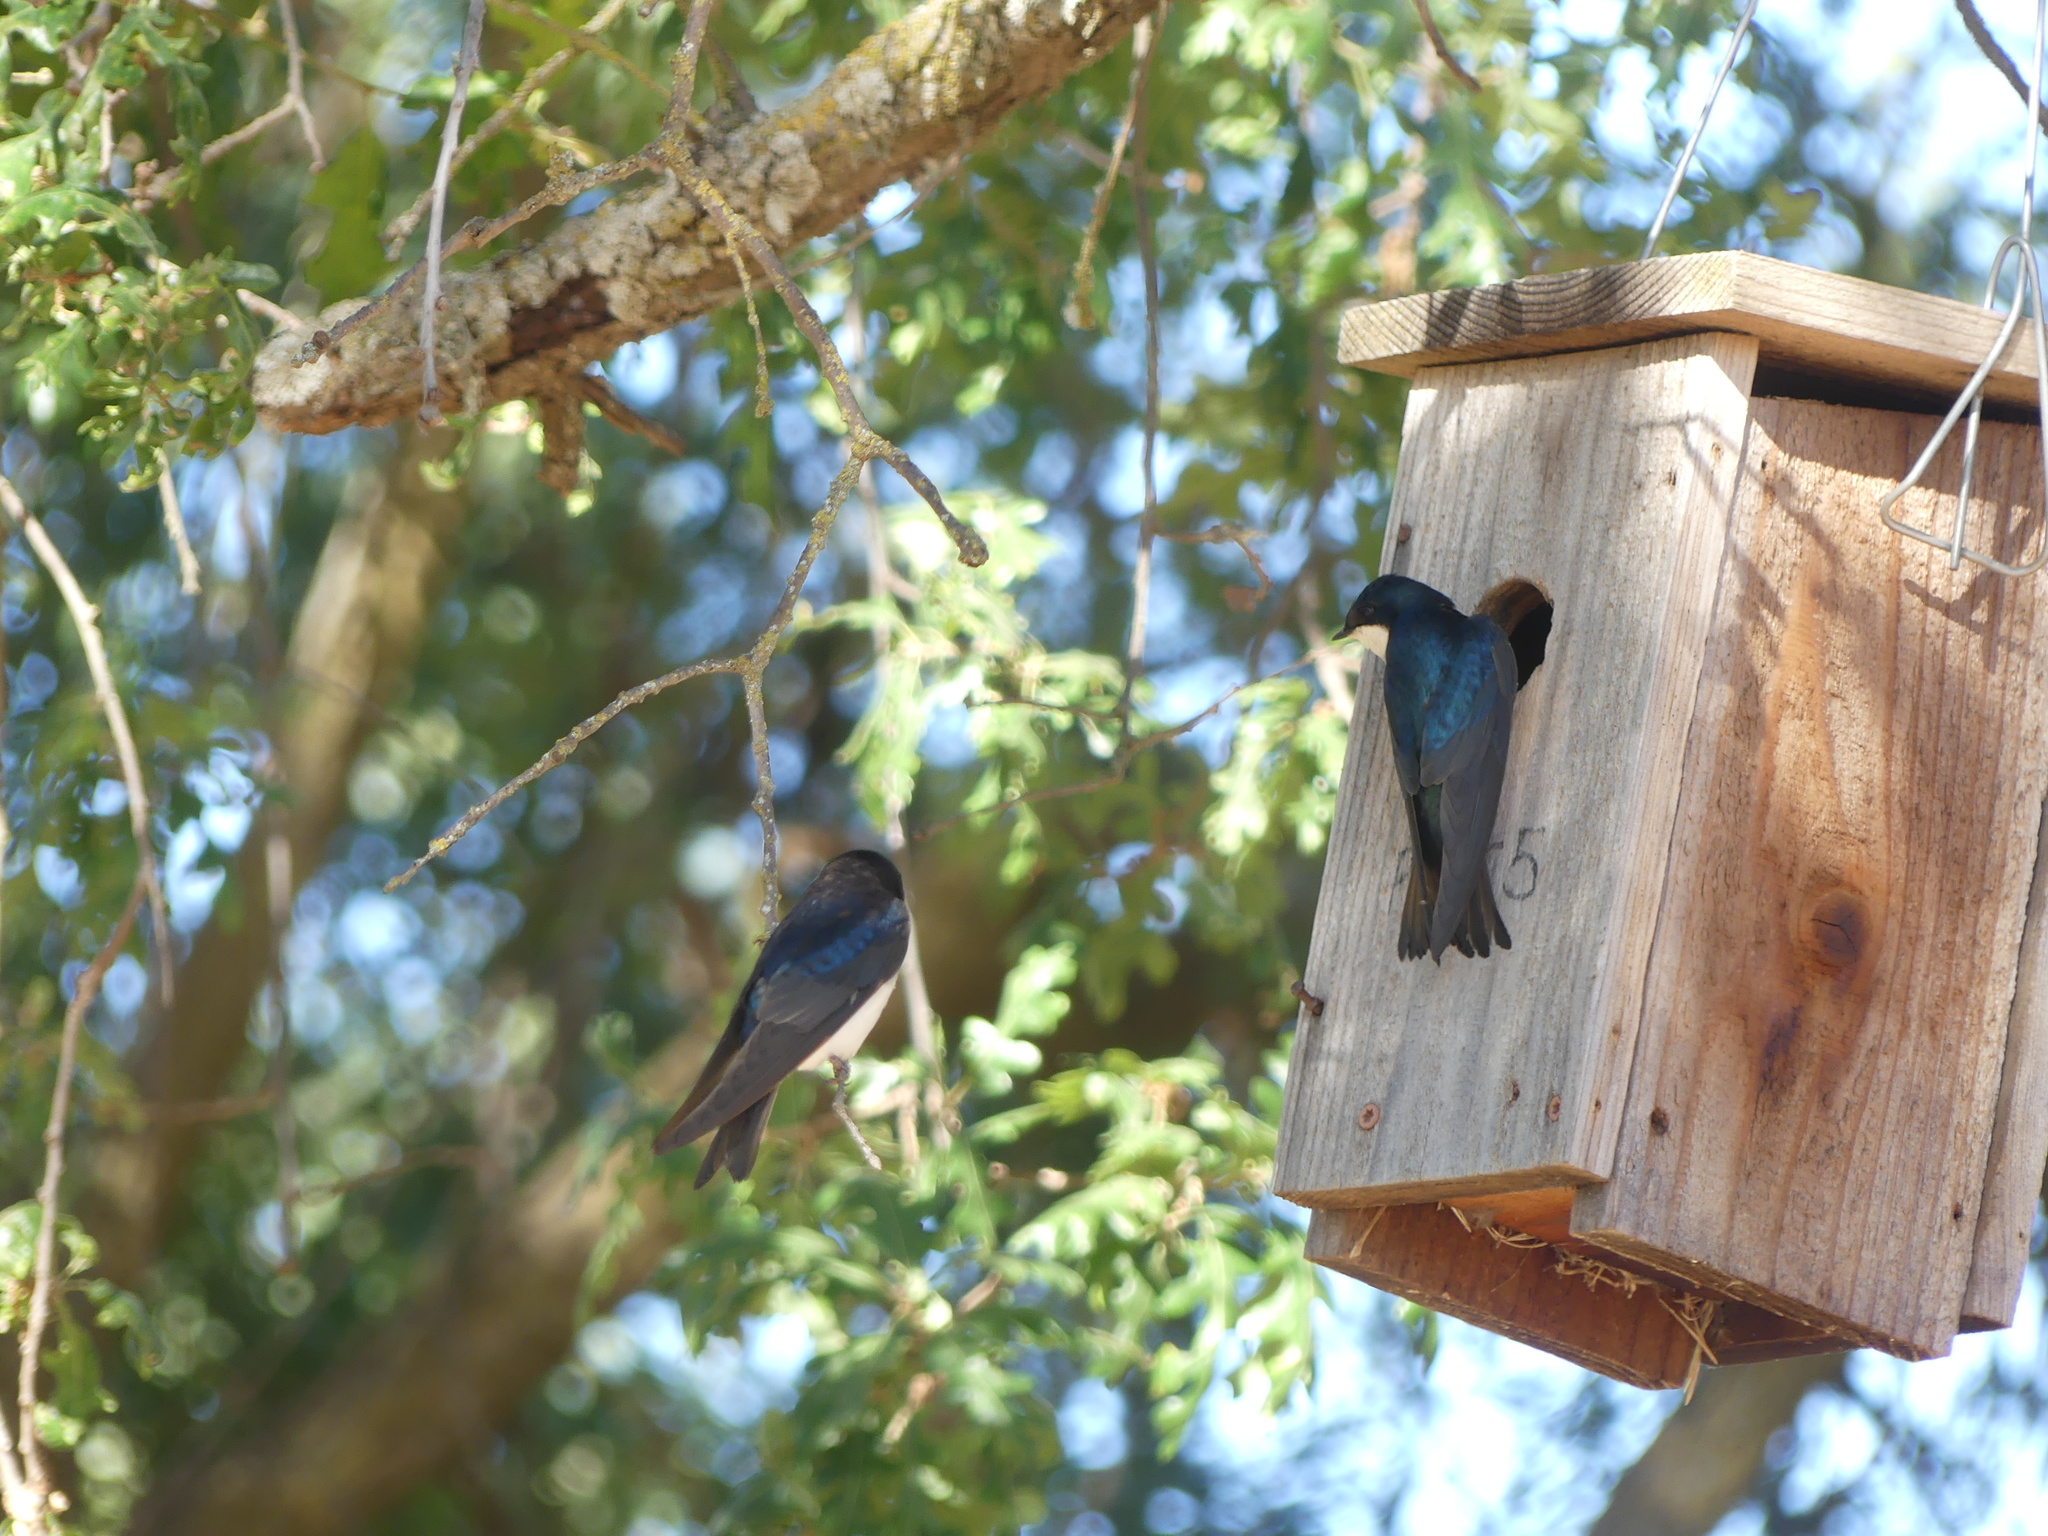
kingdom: Animalia
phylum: Chordata
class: Aves
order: Passeriformes
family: Hirundinidae
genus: Tachycineta
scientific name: Tachycineta bicolor
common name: Tree swallow
